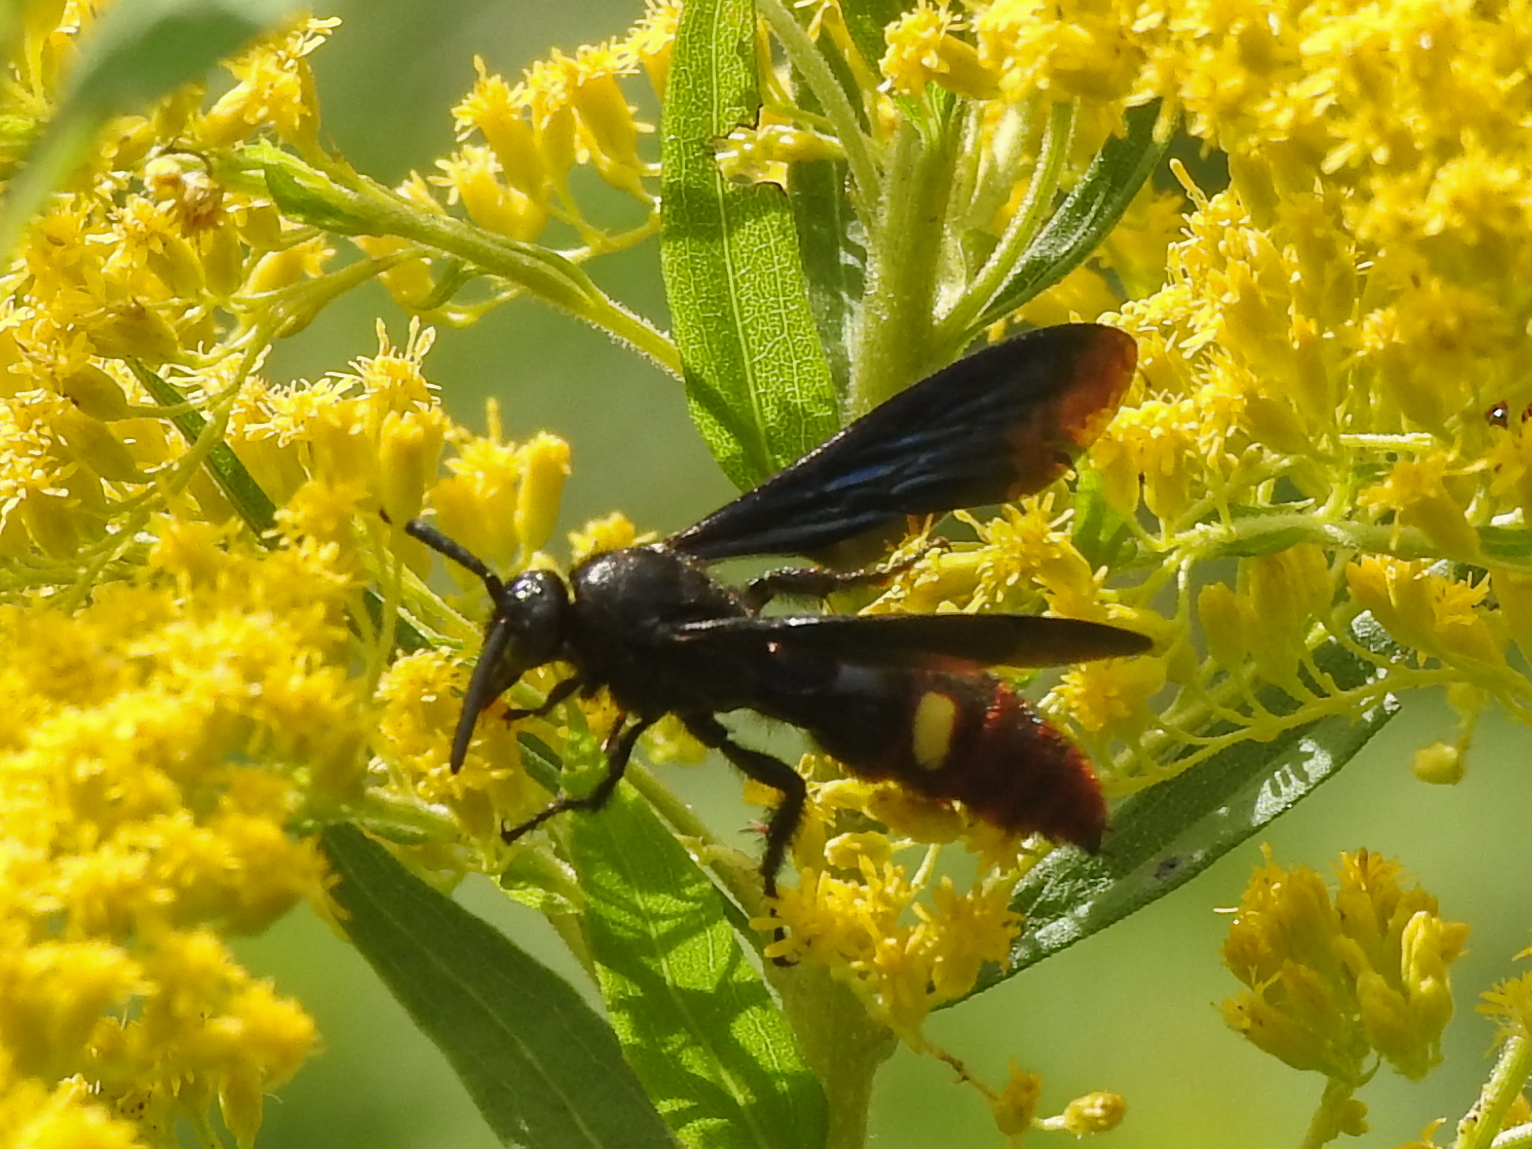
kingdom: Animalia
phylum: Arthropoda
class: Insecta
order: Hymenoptera
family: Scoliidae
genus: Scolia
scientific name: Scolia dubia
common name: Blue-winged scoliid wasp
